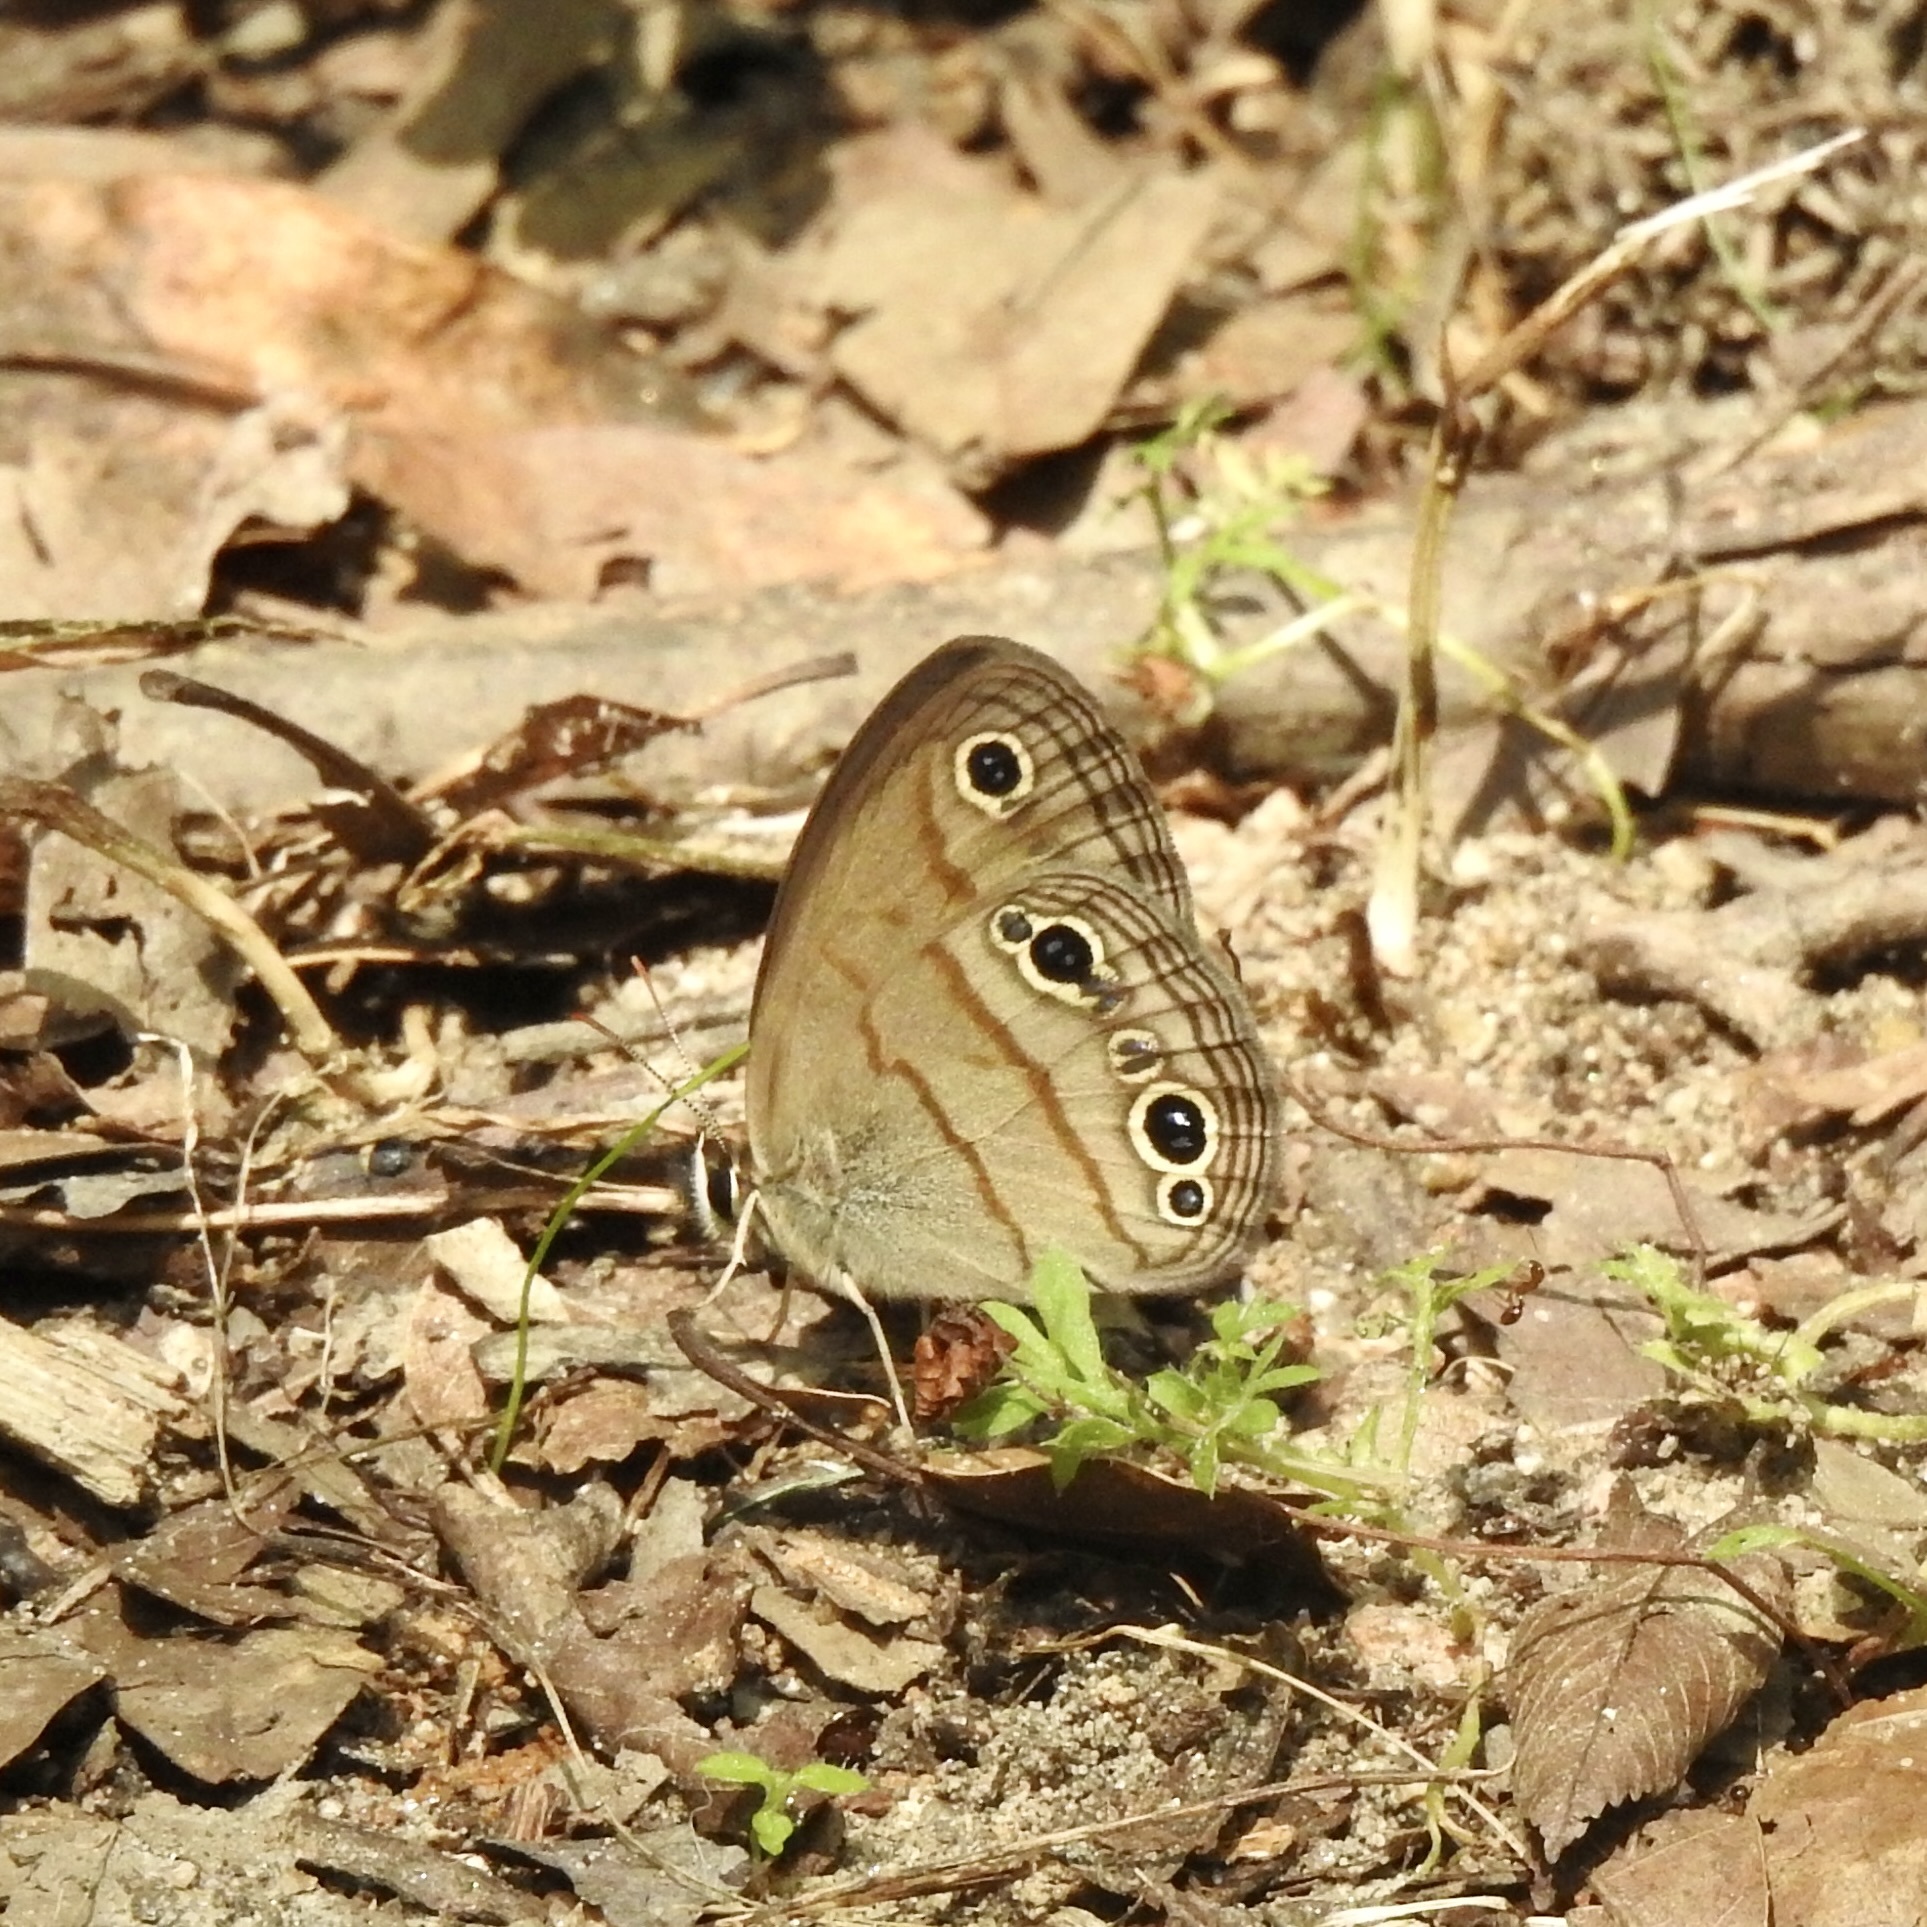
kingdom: Animalia
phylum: Arthropoda
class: Insecta
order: Lepidoptera
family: Nymphalidae
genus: Euptychia
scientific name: Euptychia cymela
